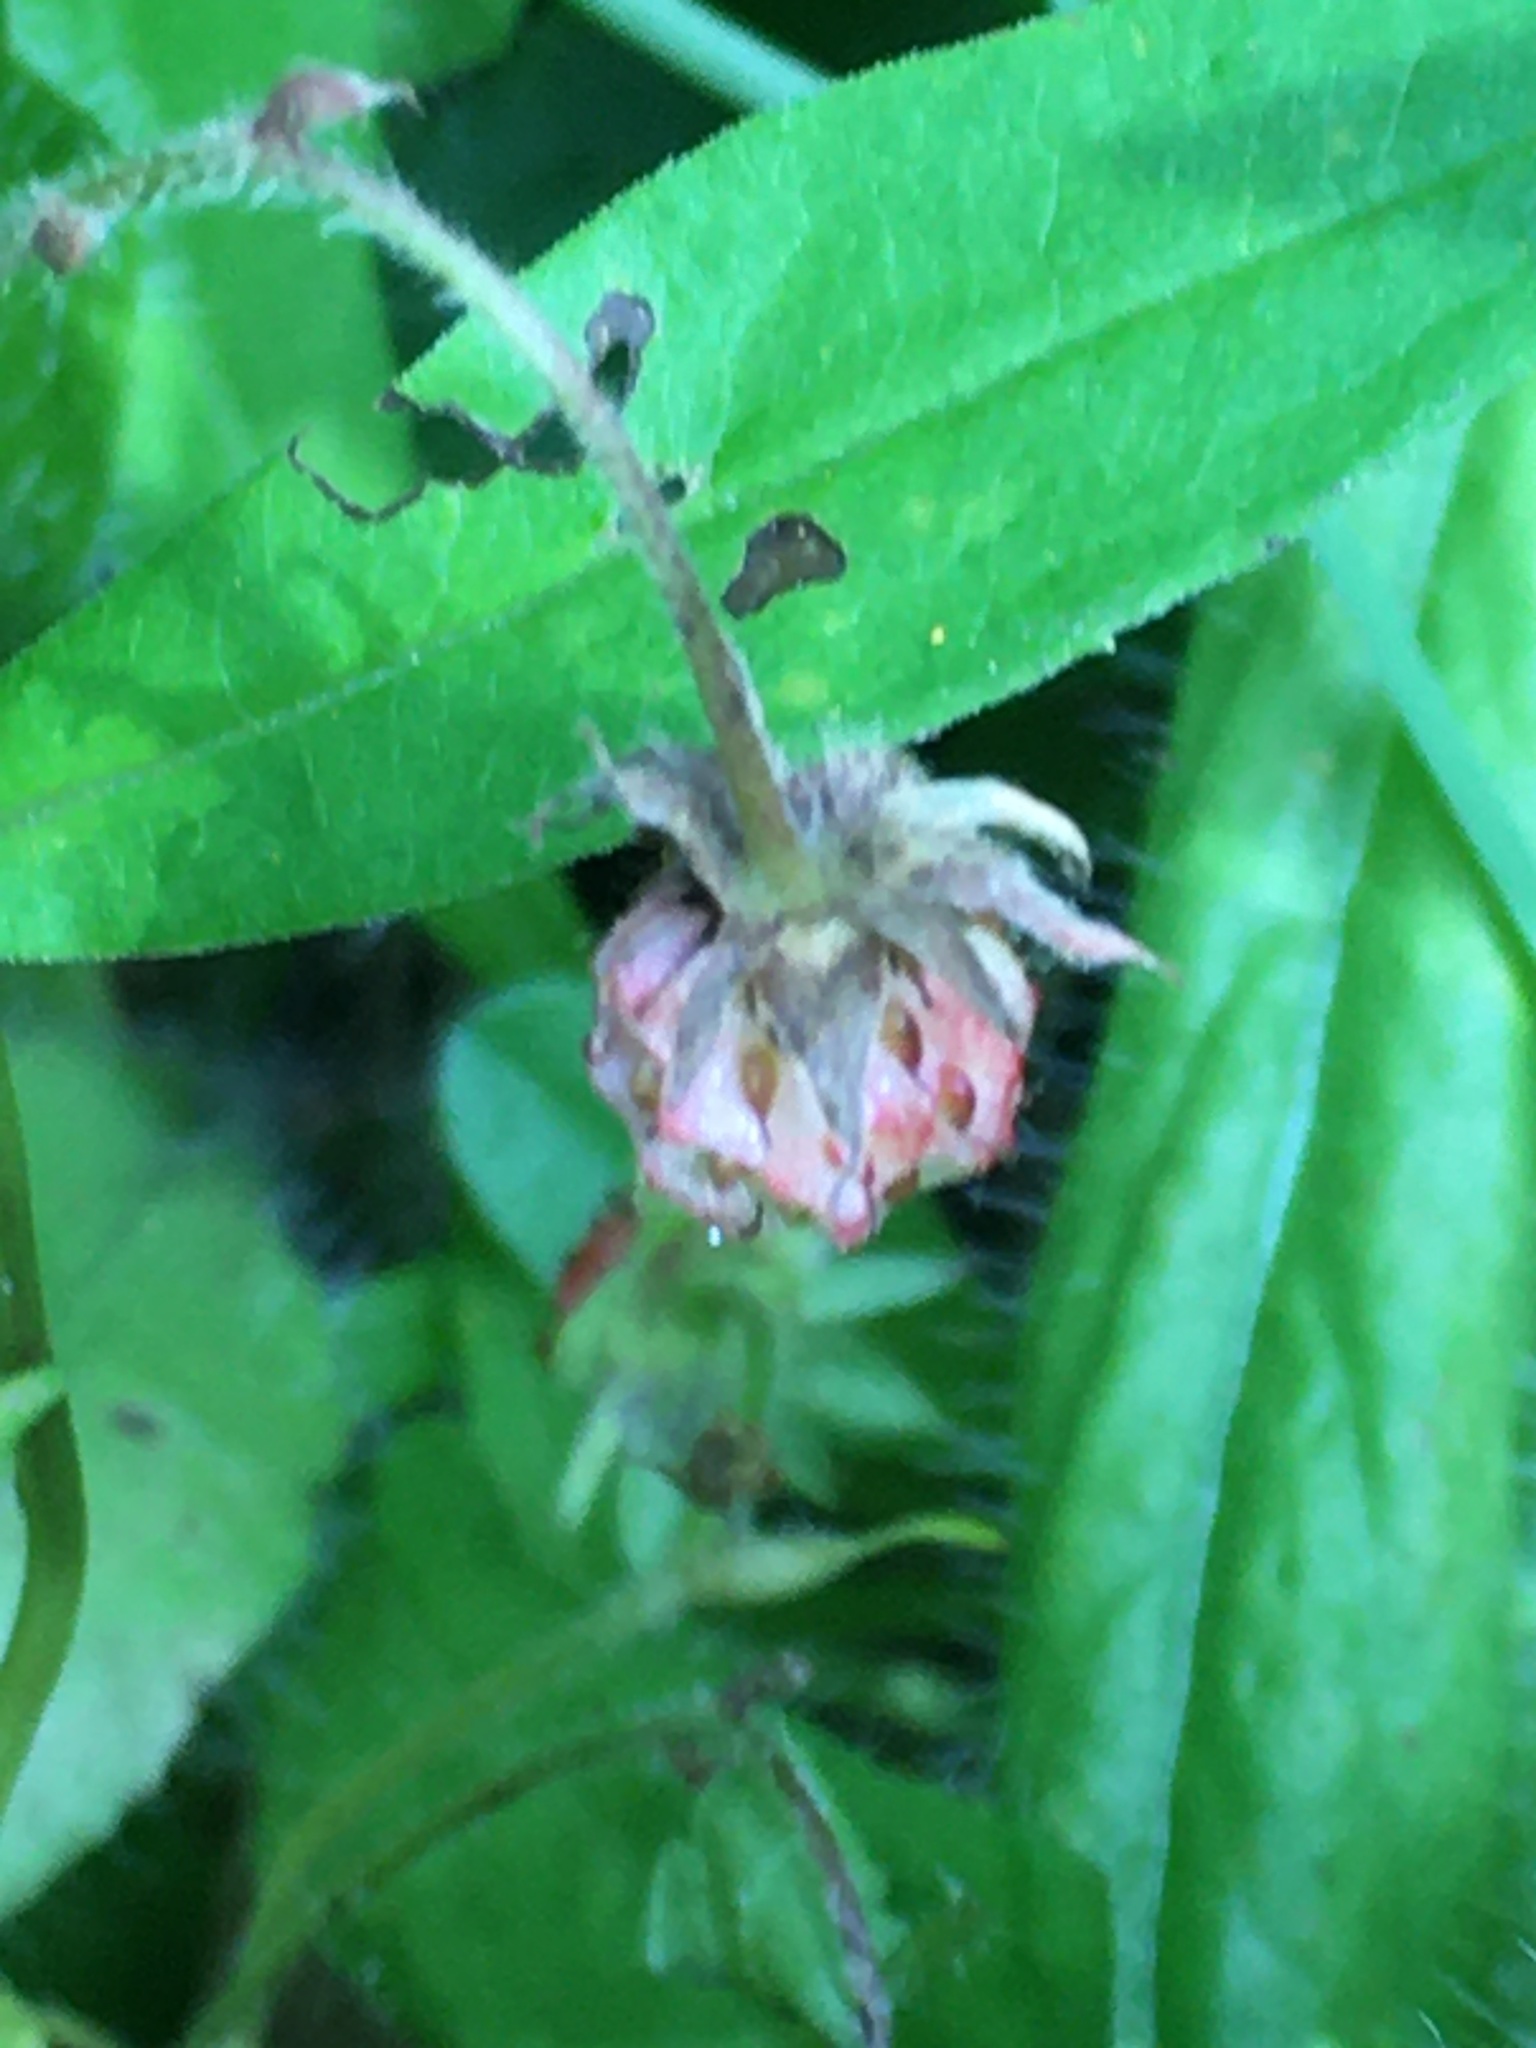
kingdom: Plantae
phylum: Tracheophyta
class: Magnoliopsida
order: Rosales
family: Rosaceae
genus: Fragaria
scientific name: Fragaria vesca
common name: Wild strawberry
